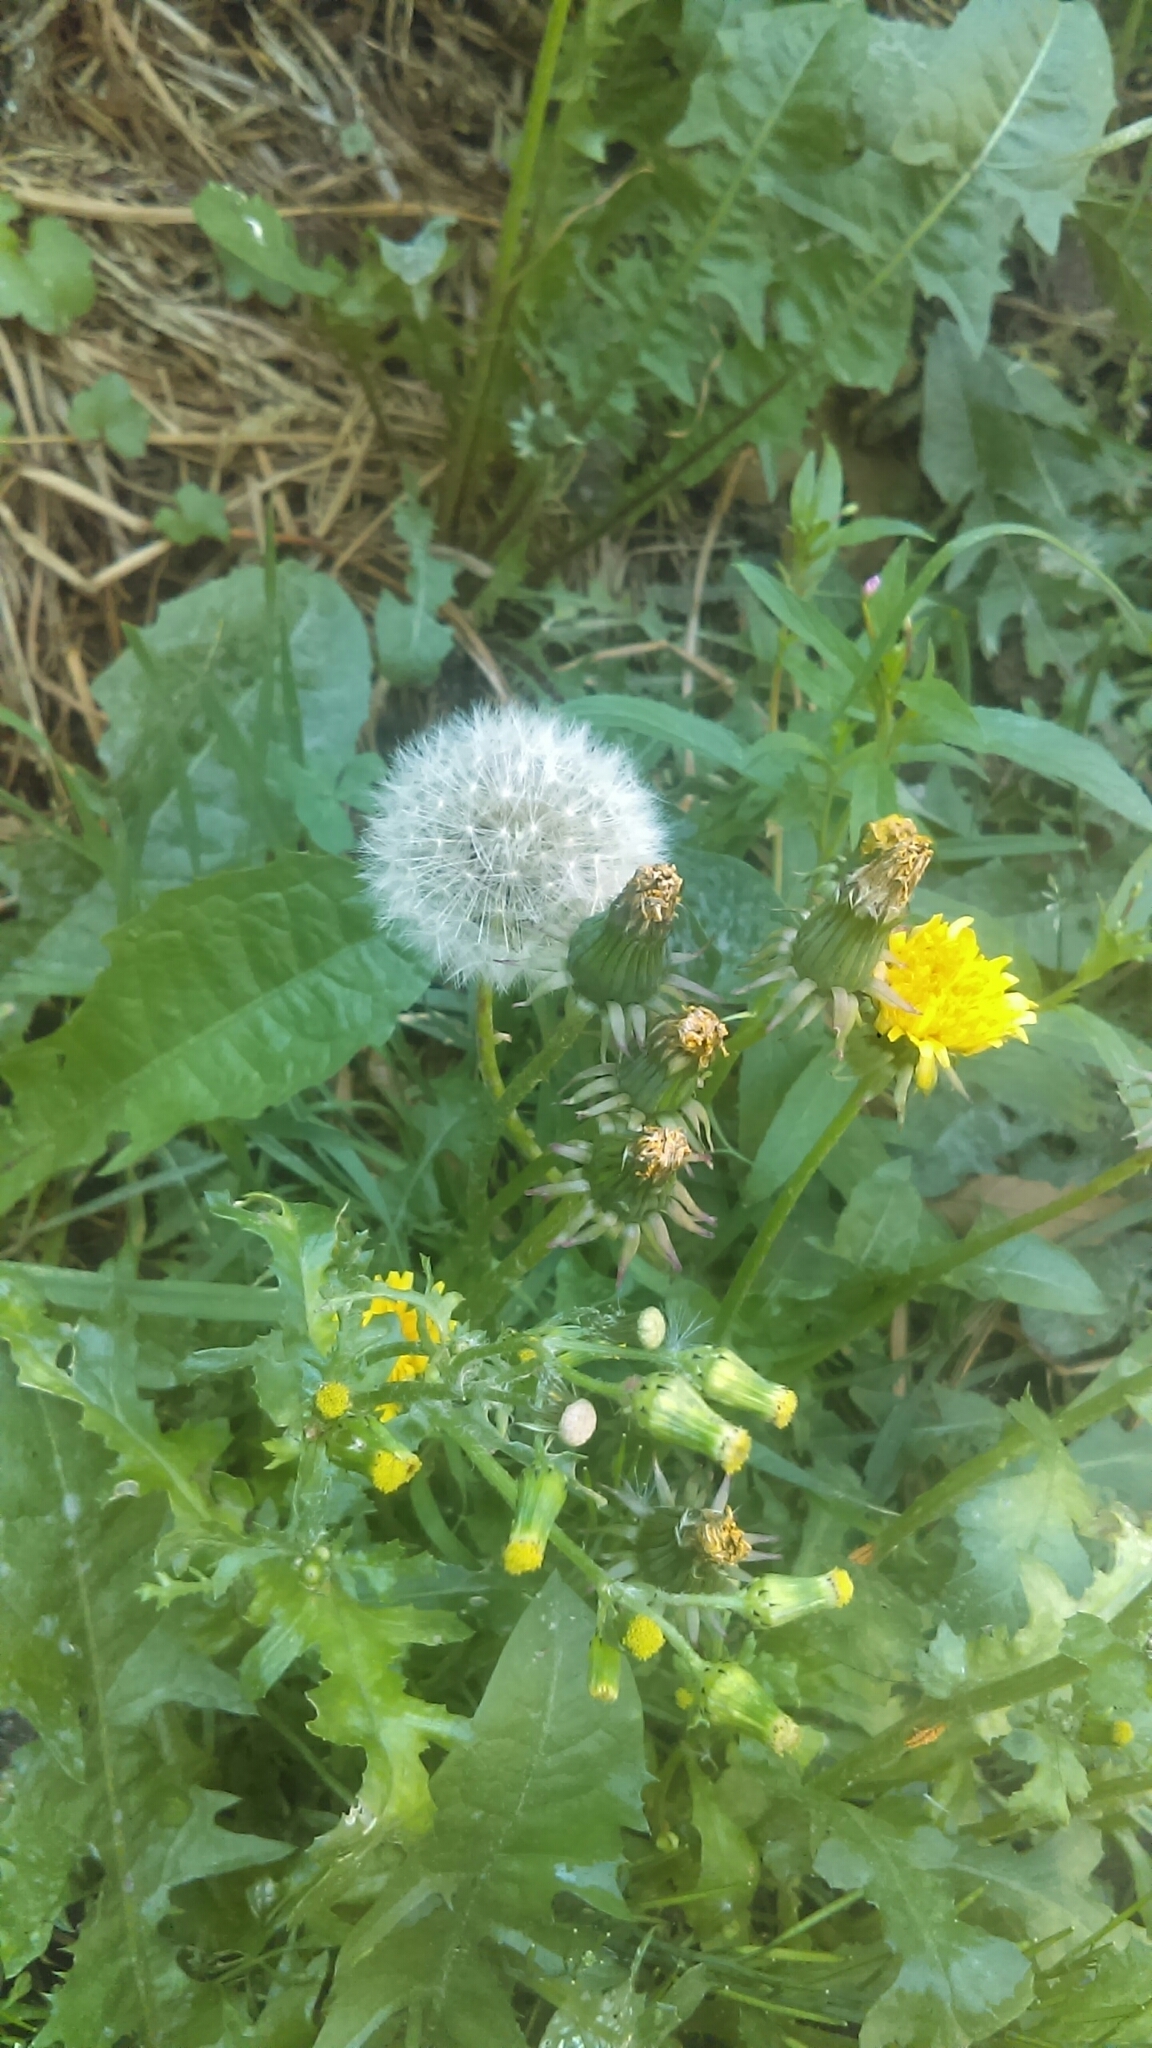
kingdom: Plantae
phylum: Tracheophyta
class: Magnoliopsida
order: Asterales
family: Asteraceae
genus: Taraxacum
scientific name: Taraxacum officinale
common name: Common dandelion
